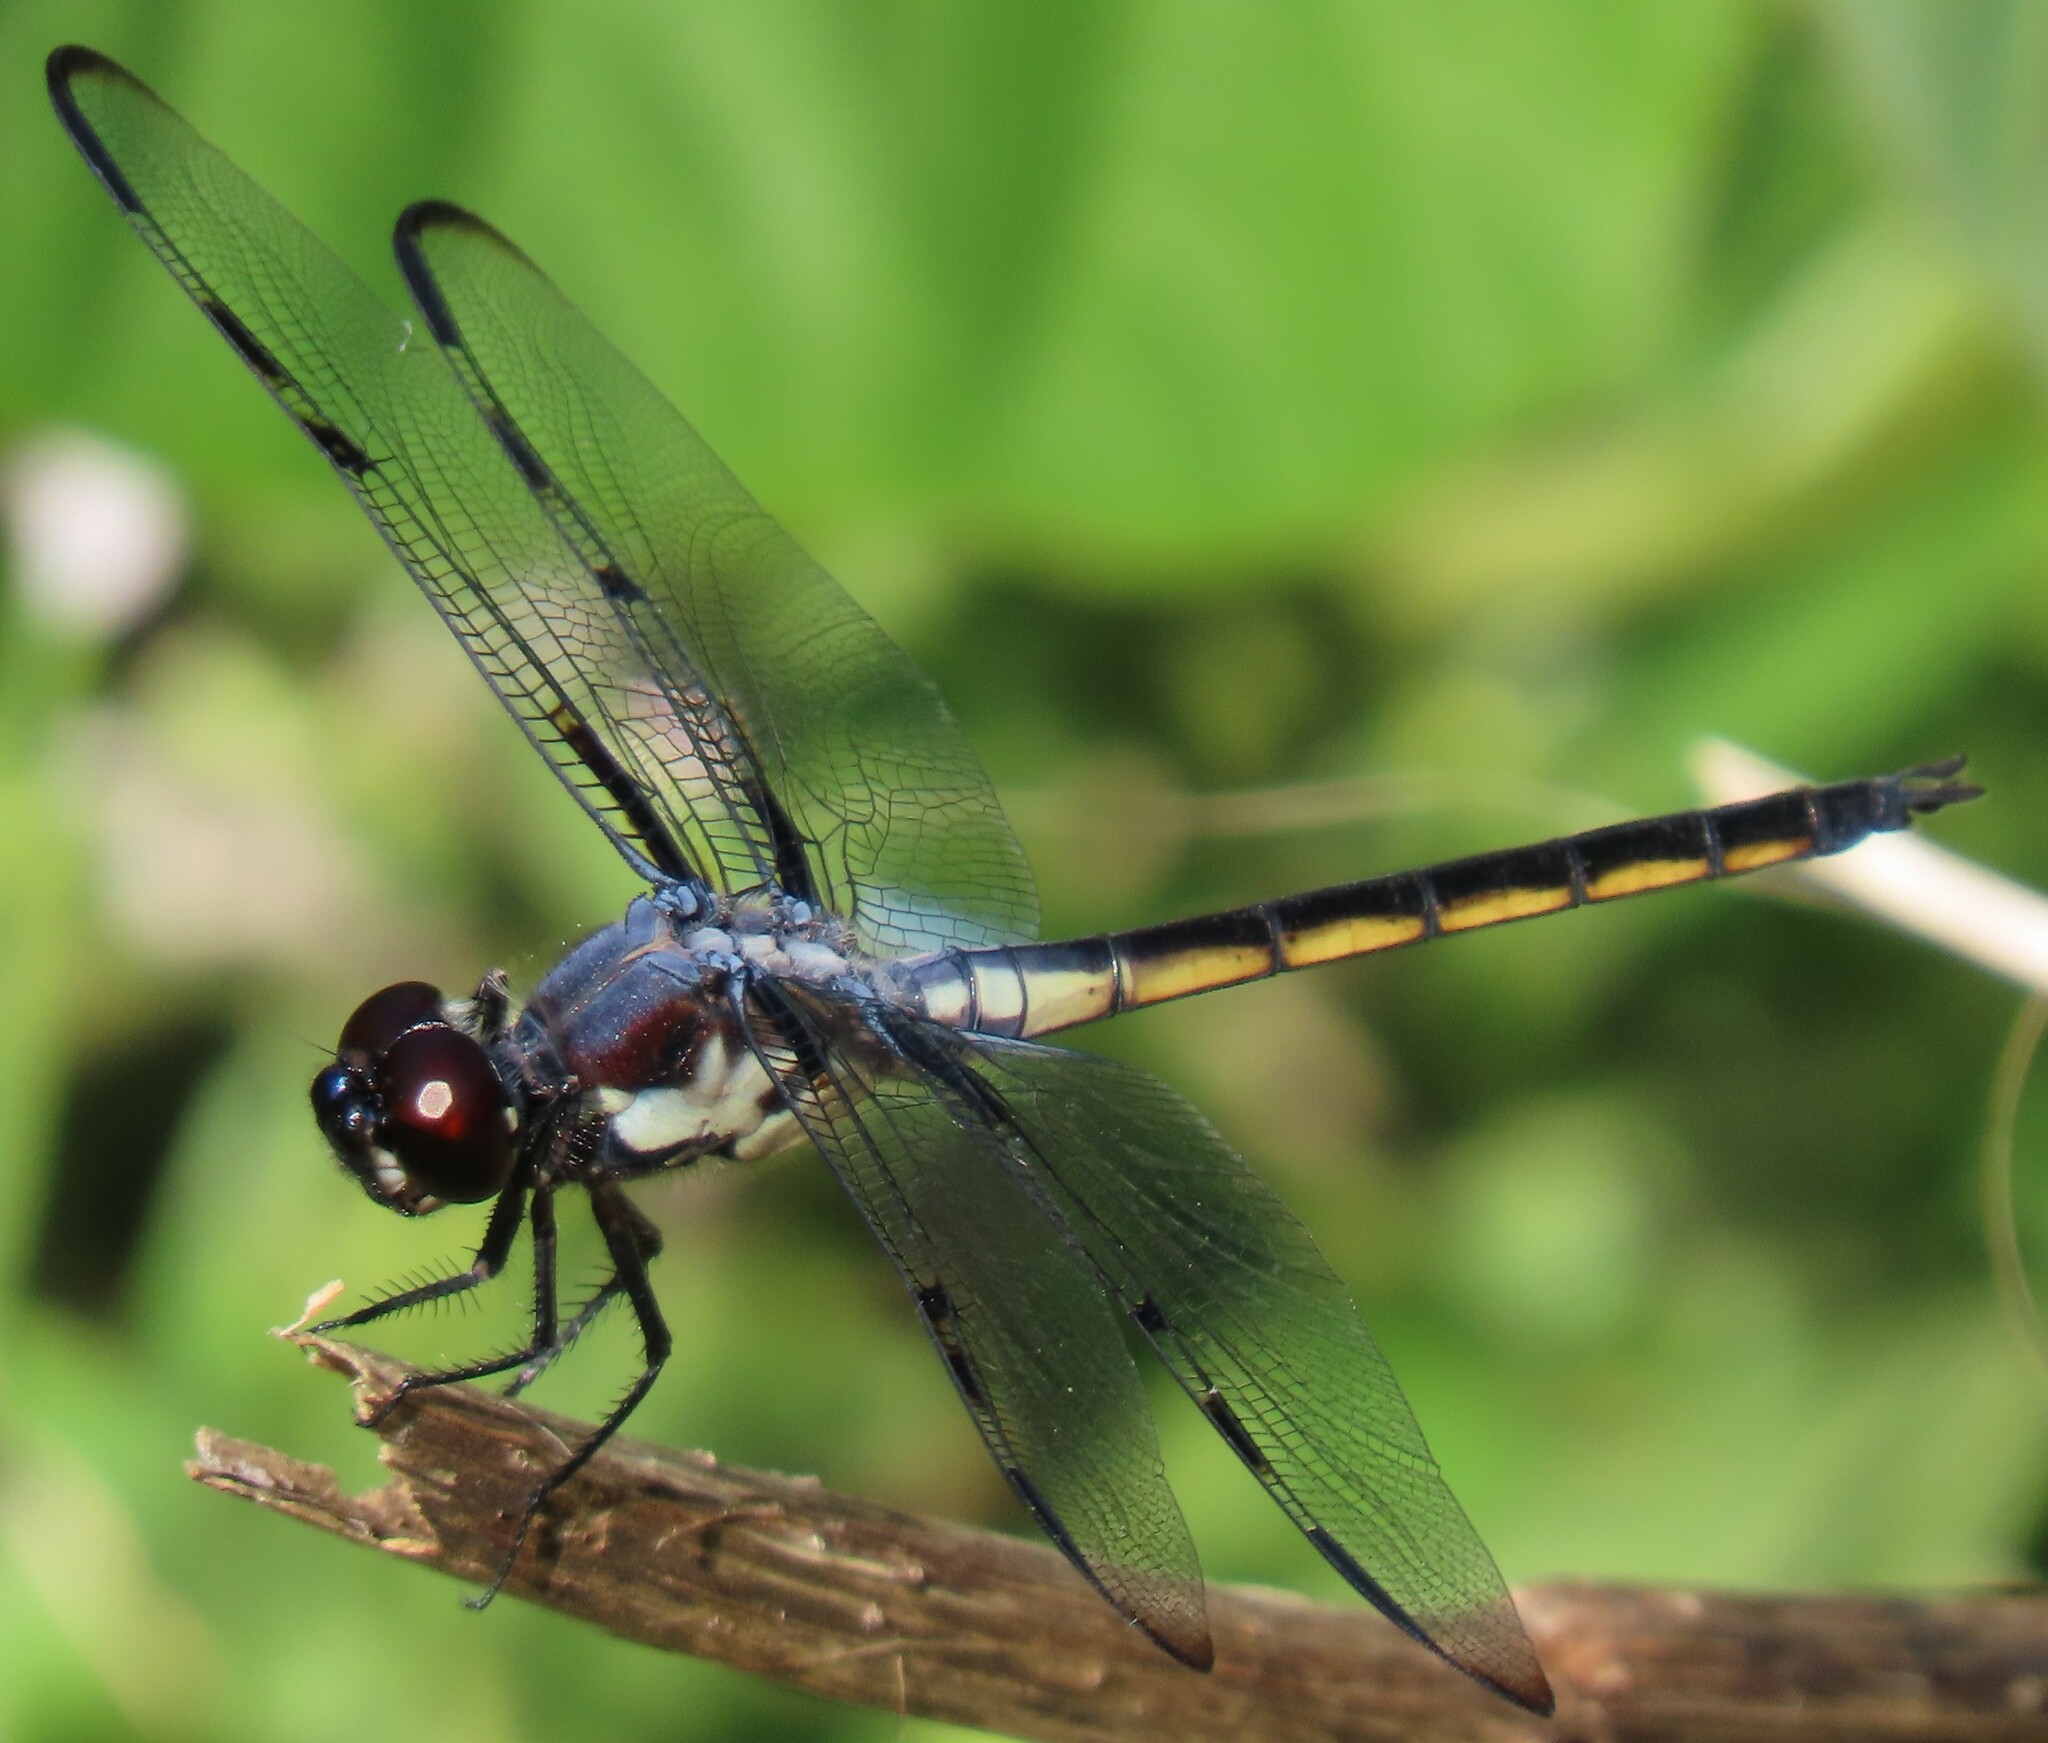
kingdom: Animalia
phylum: Arthropoda
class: Insecta
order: Odonata
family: Libellulidae
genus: Libellula
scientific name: Libellula axilena
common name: Bar-winged skimmer
